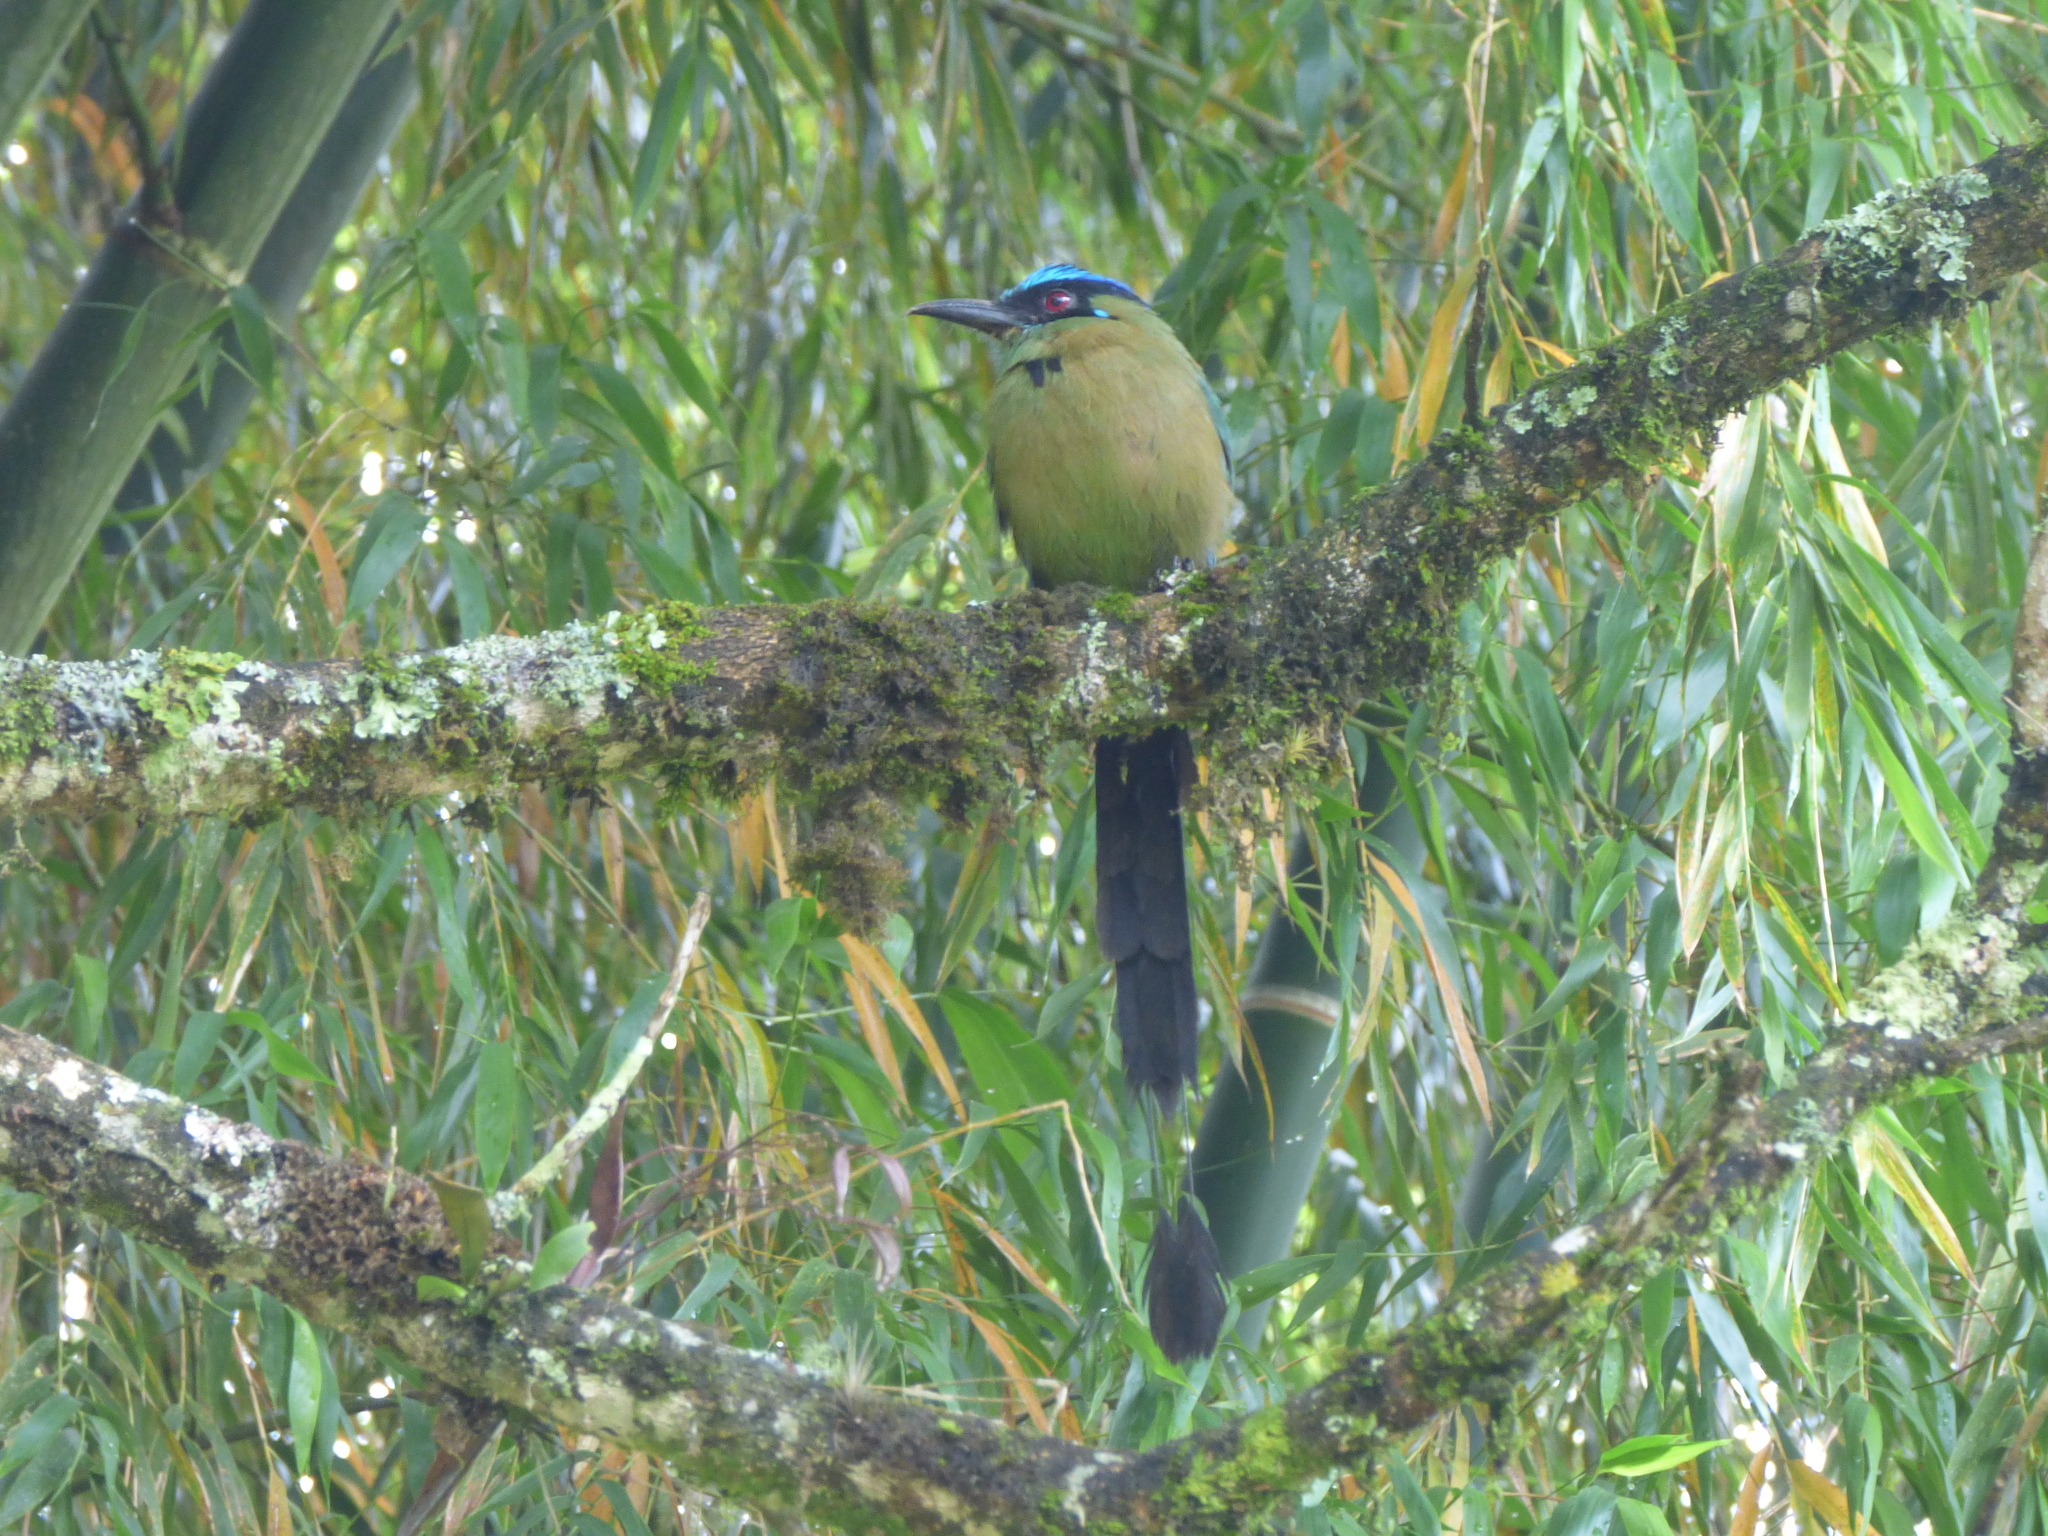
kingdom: Animalia
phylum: Chordata
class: Aves
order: Coraciiformes
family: Momotidae
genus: Momotus
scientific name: Momotus aequatorialis
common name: Andean motmot
